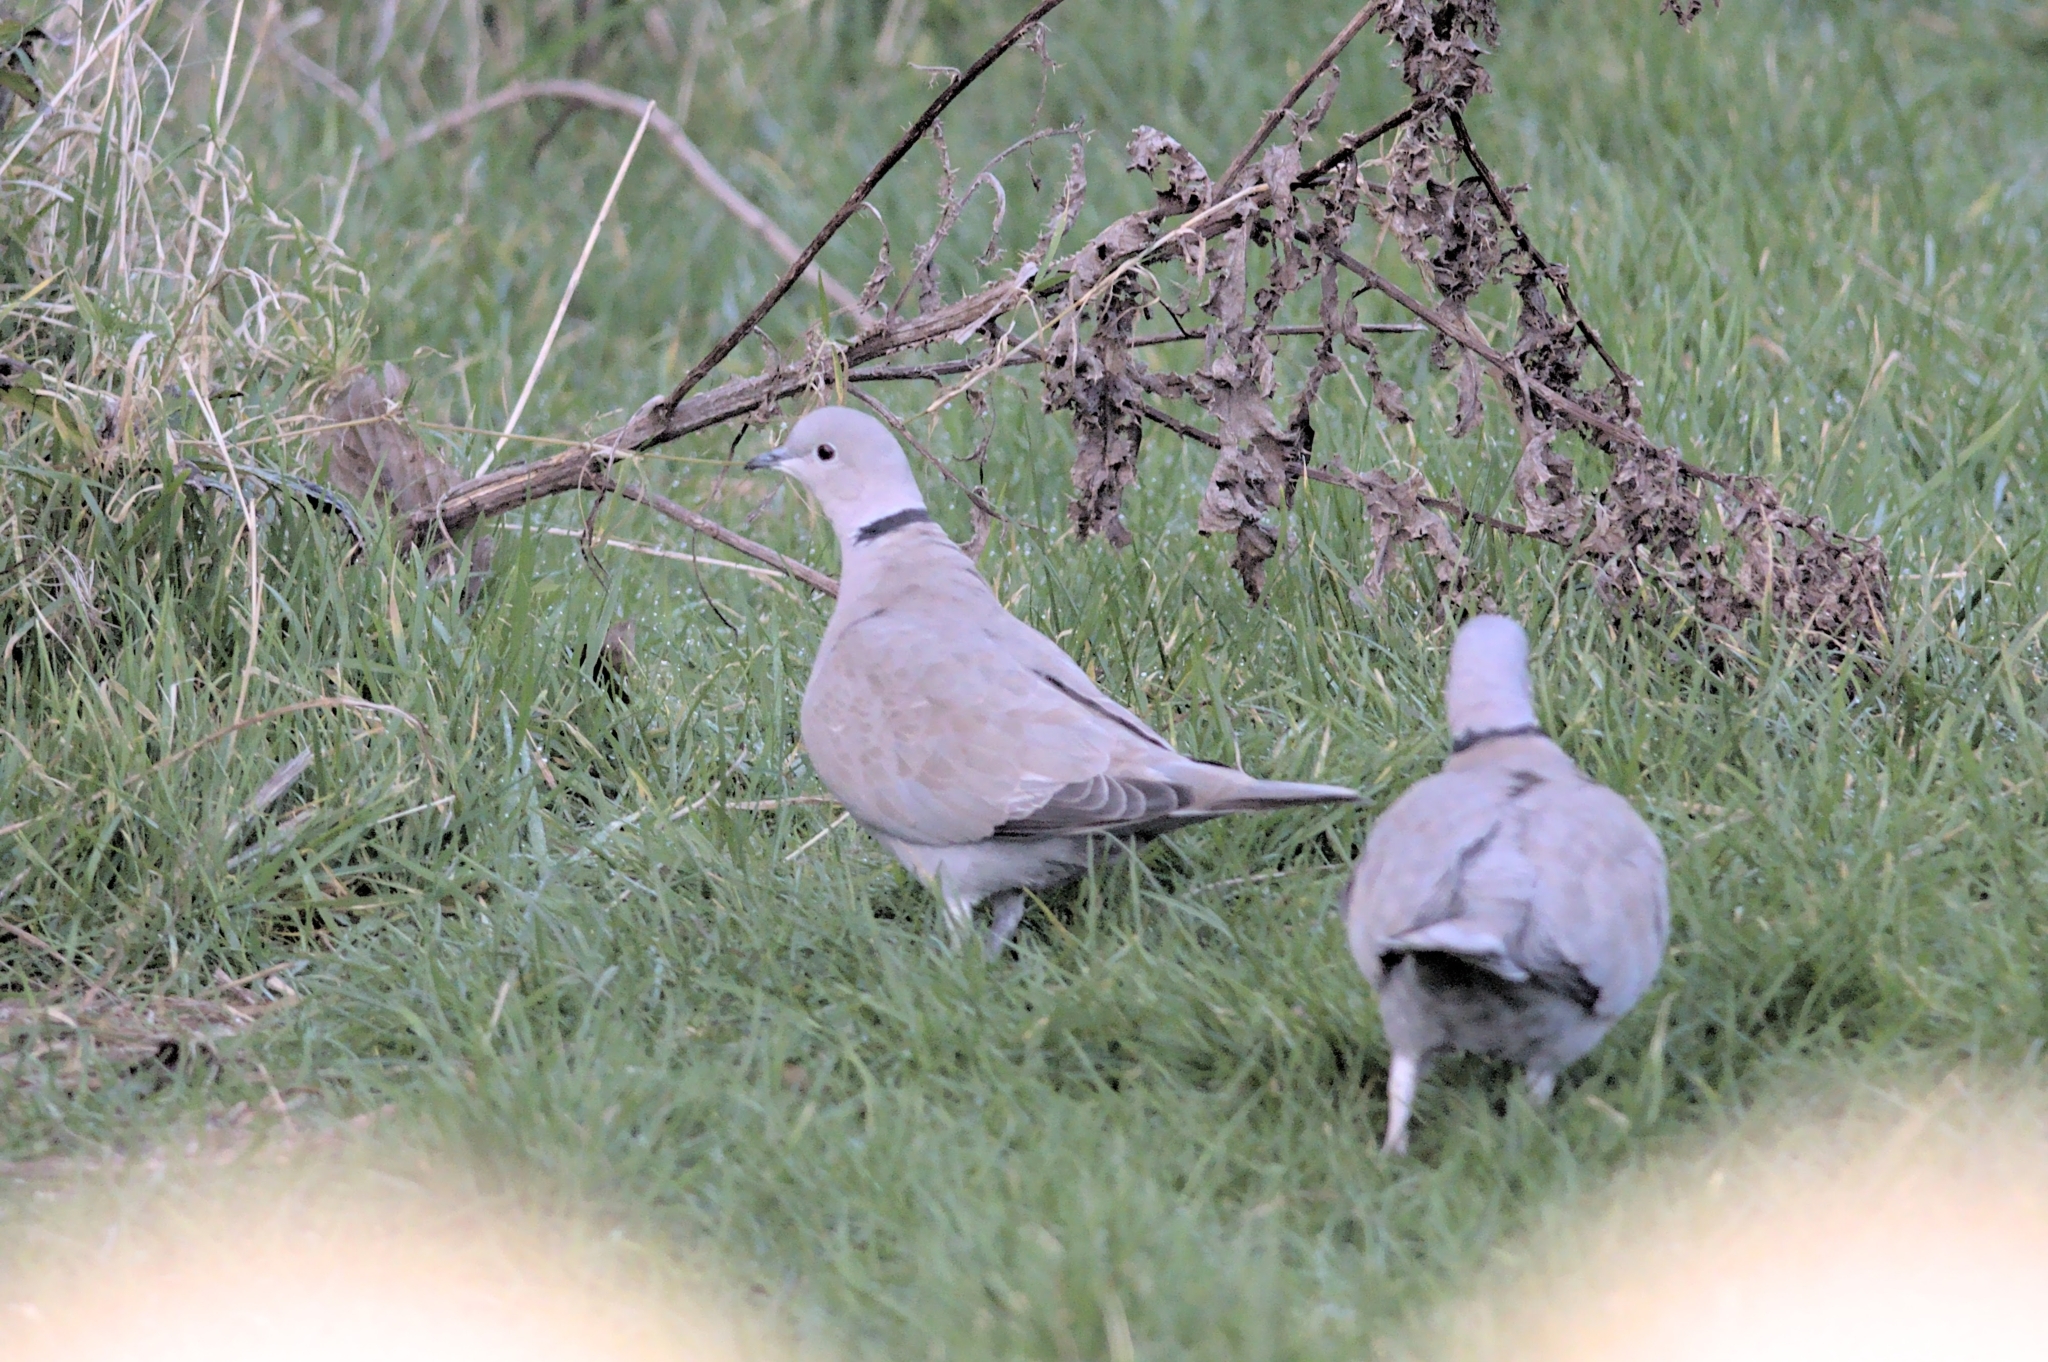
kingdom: Animalia
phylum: Chordata
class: Aves
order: Columbiformes
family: Columbidae
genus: Streptopelia
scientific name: Streptopelia decaocto
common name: Eurasian collared dove
